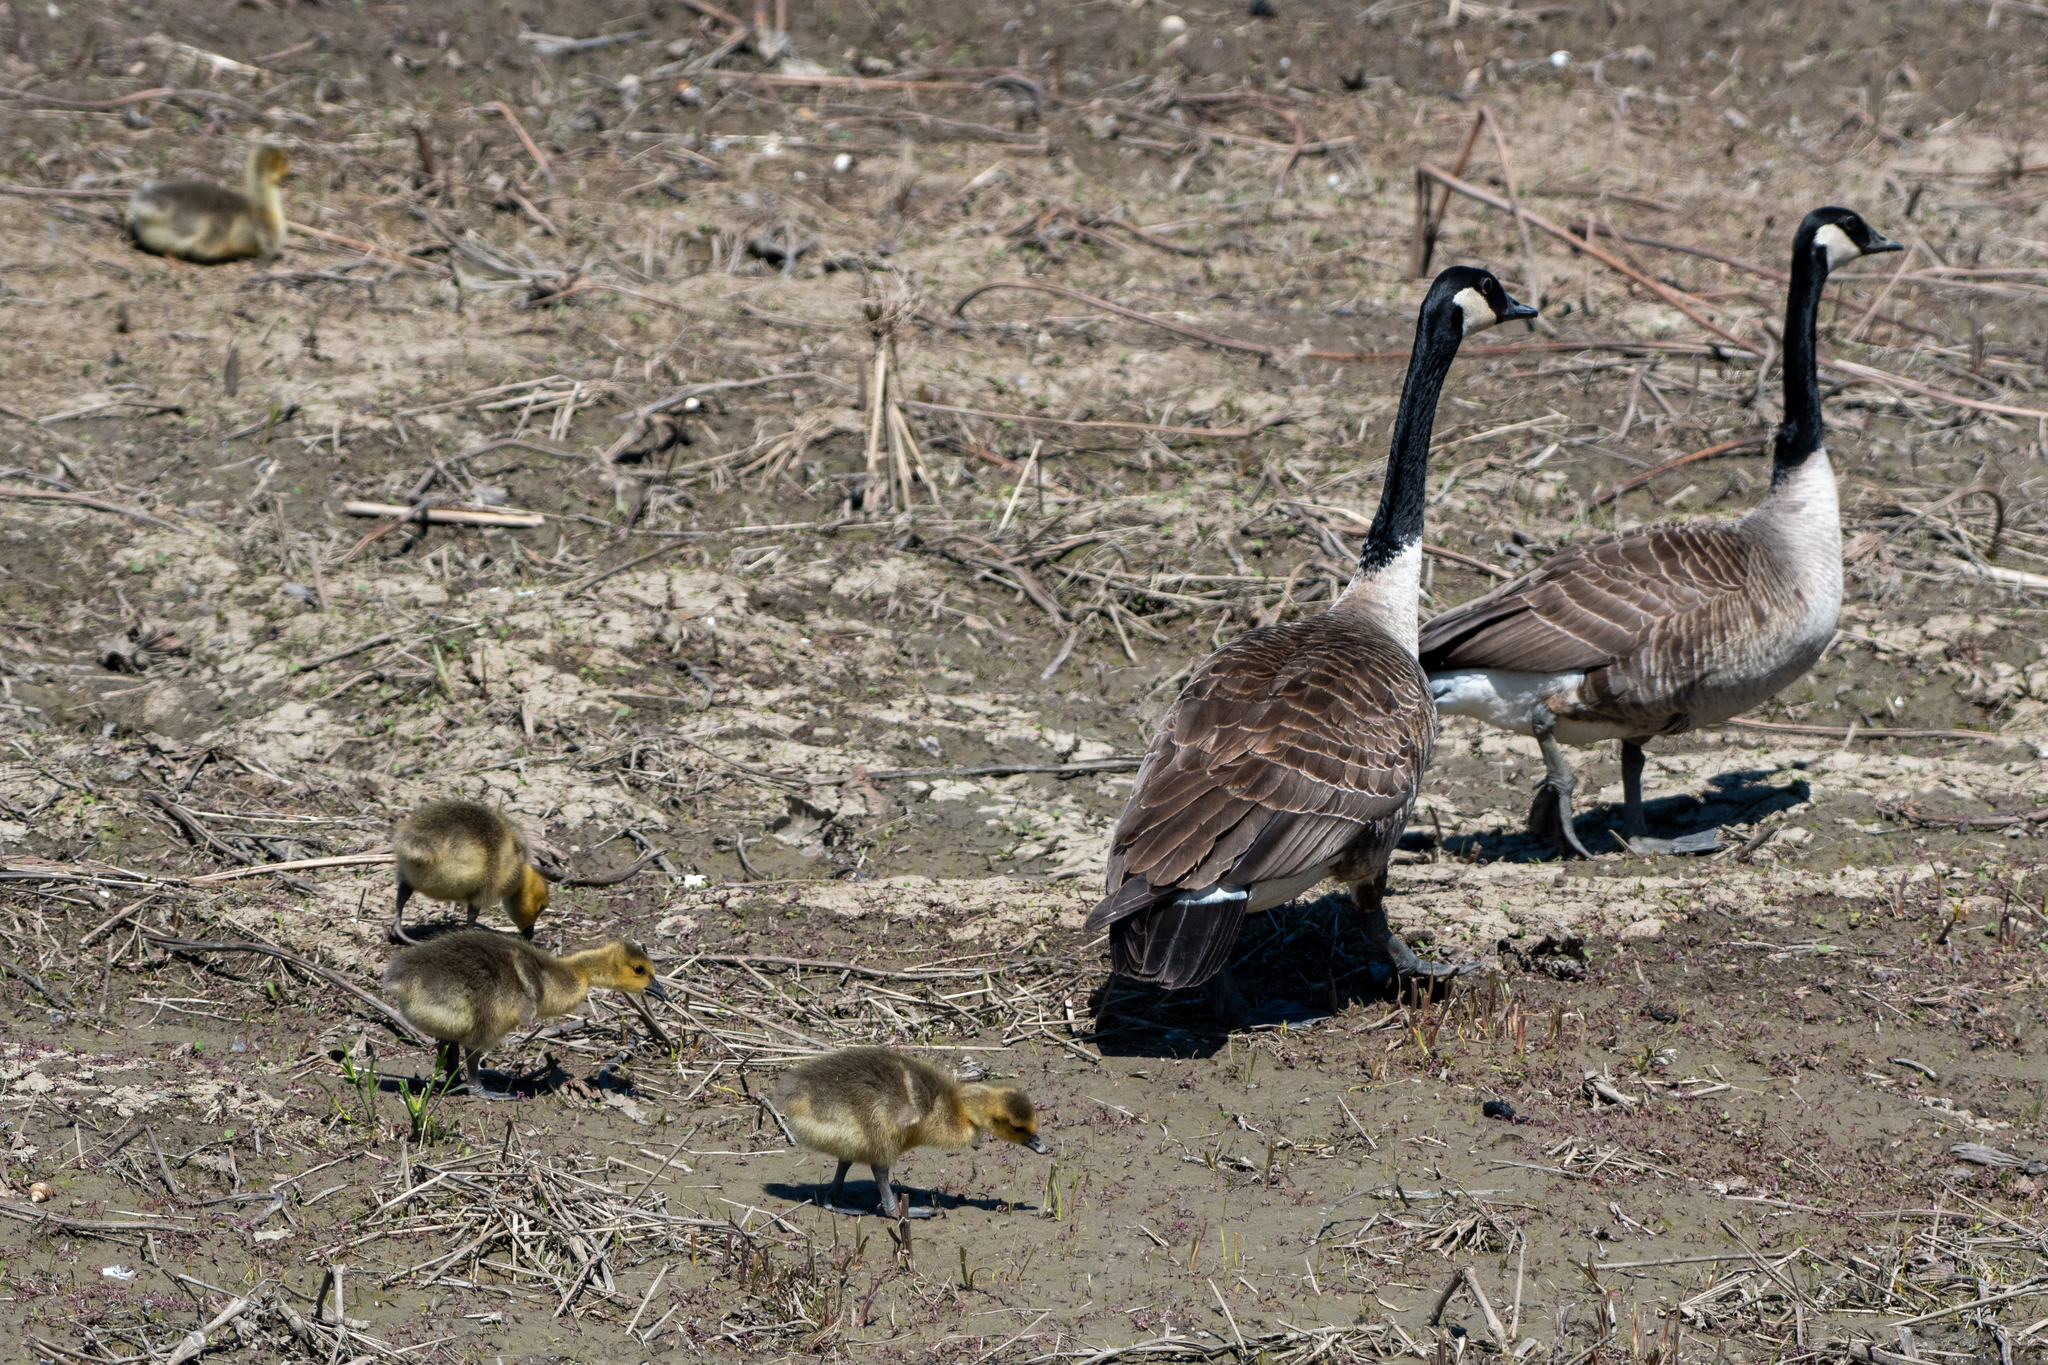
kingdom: Animalia
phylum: Chordata
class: Aves
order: Anseriformes
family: Anatidae
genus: Branta
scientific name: Branta canadensis
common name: Canada goose
